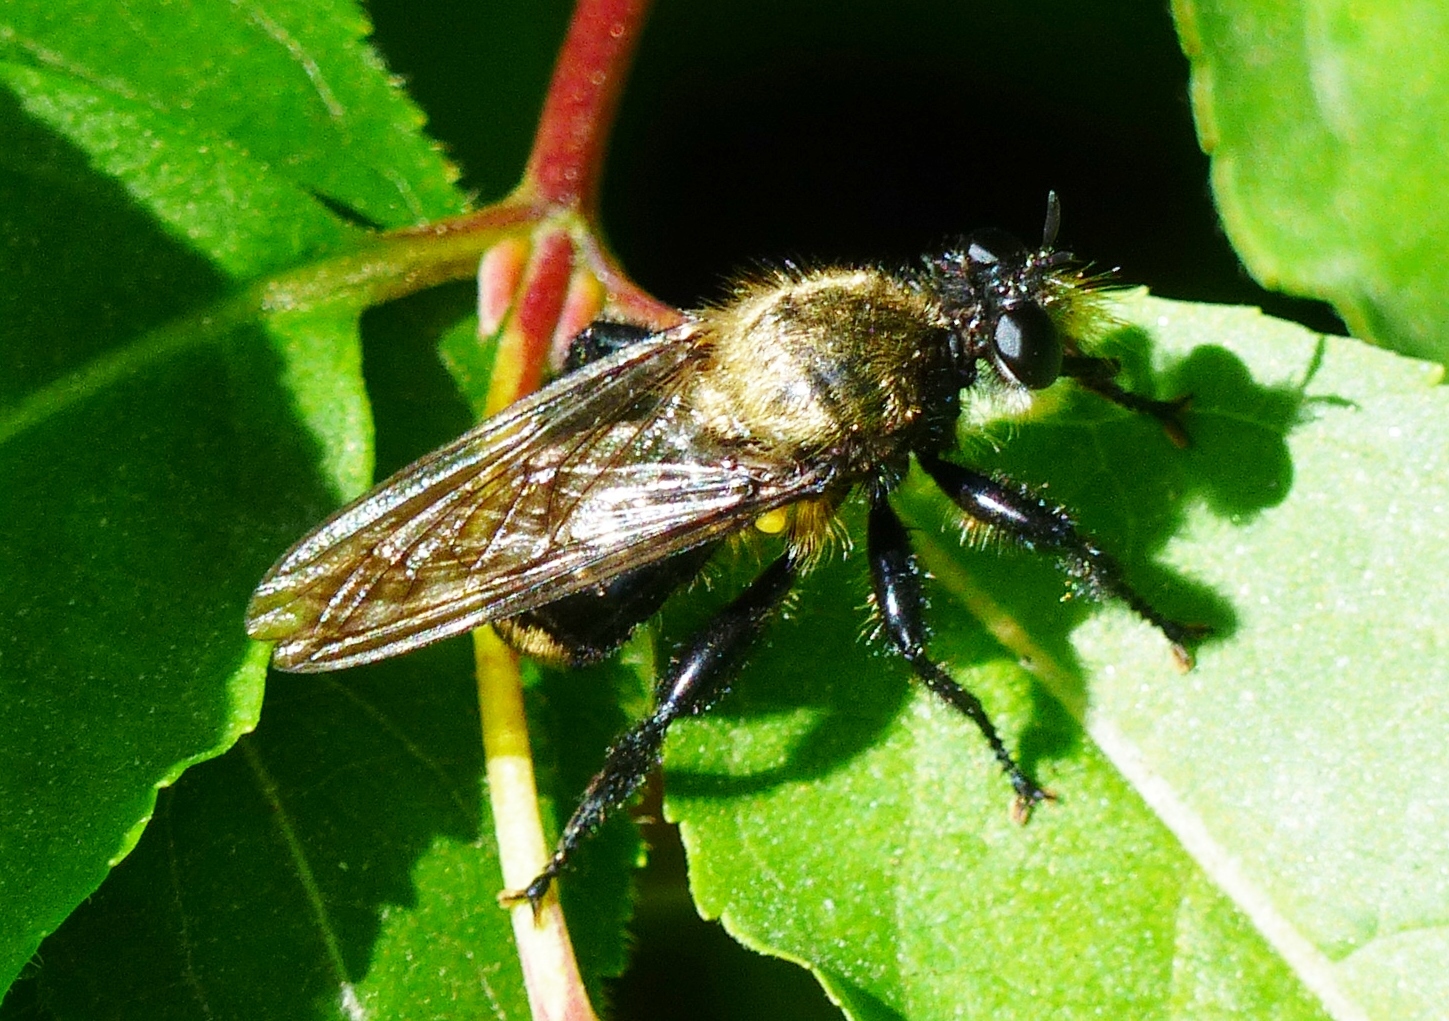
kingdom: Animalia
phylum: Arthropoda
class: Insecta
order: Diptera
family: Asilidae
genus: Laphria
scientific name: Laphria divisor
